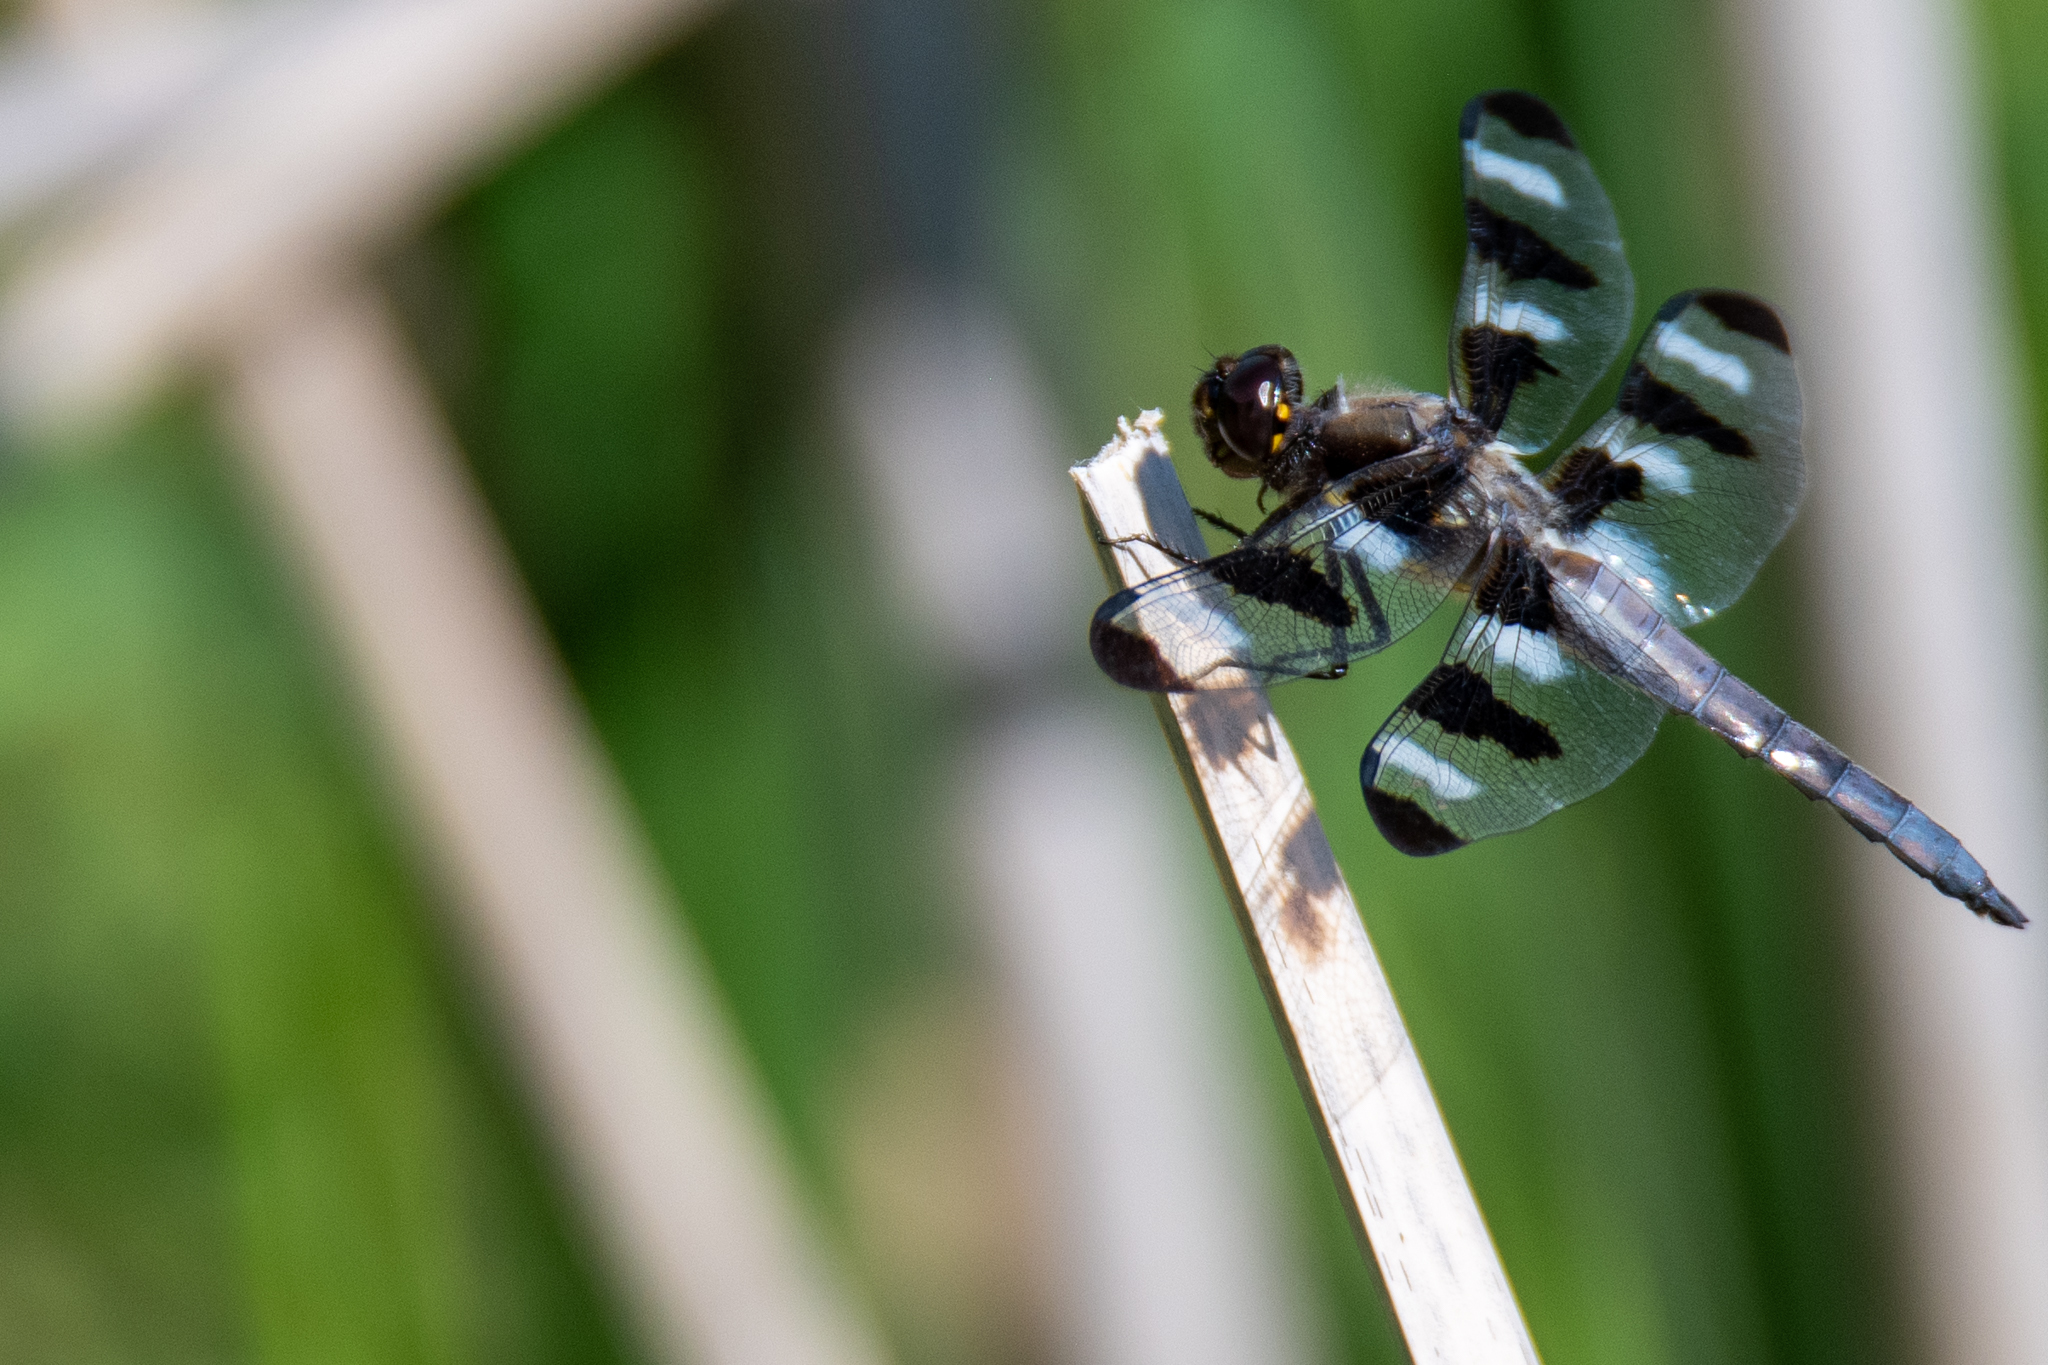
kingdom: Animalia
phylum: Arthropoda
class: Insecta
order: Odonata
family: Libellulidae
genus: Libellula
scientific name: Libellula pulchella
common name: Twelve-spotted skimmer
